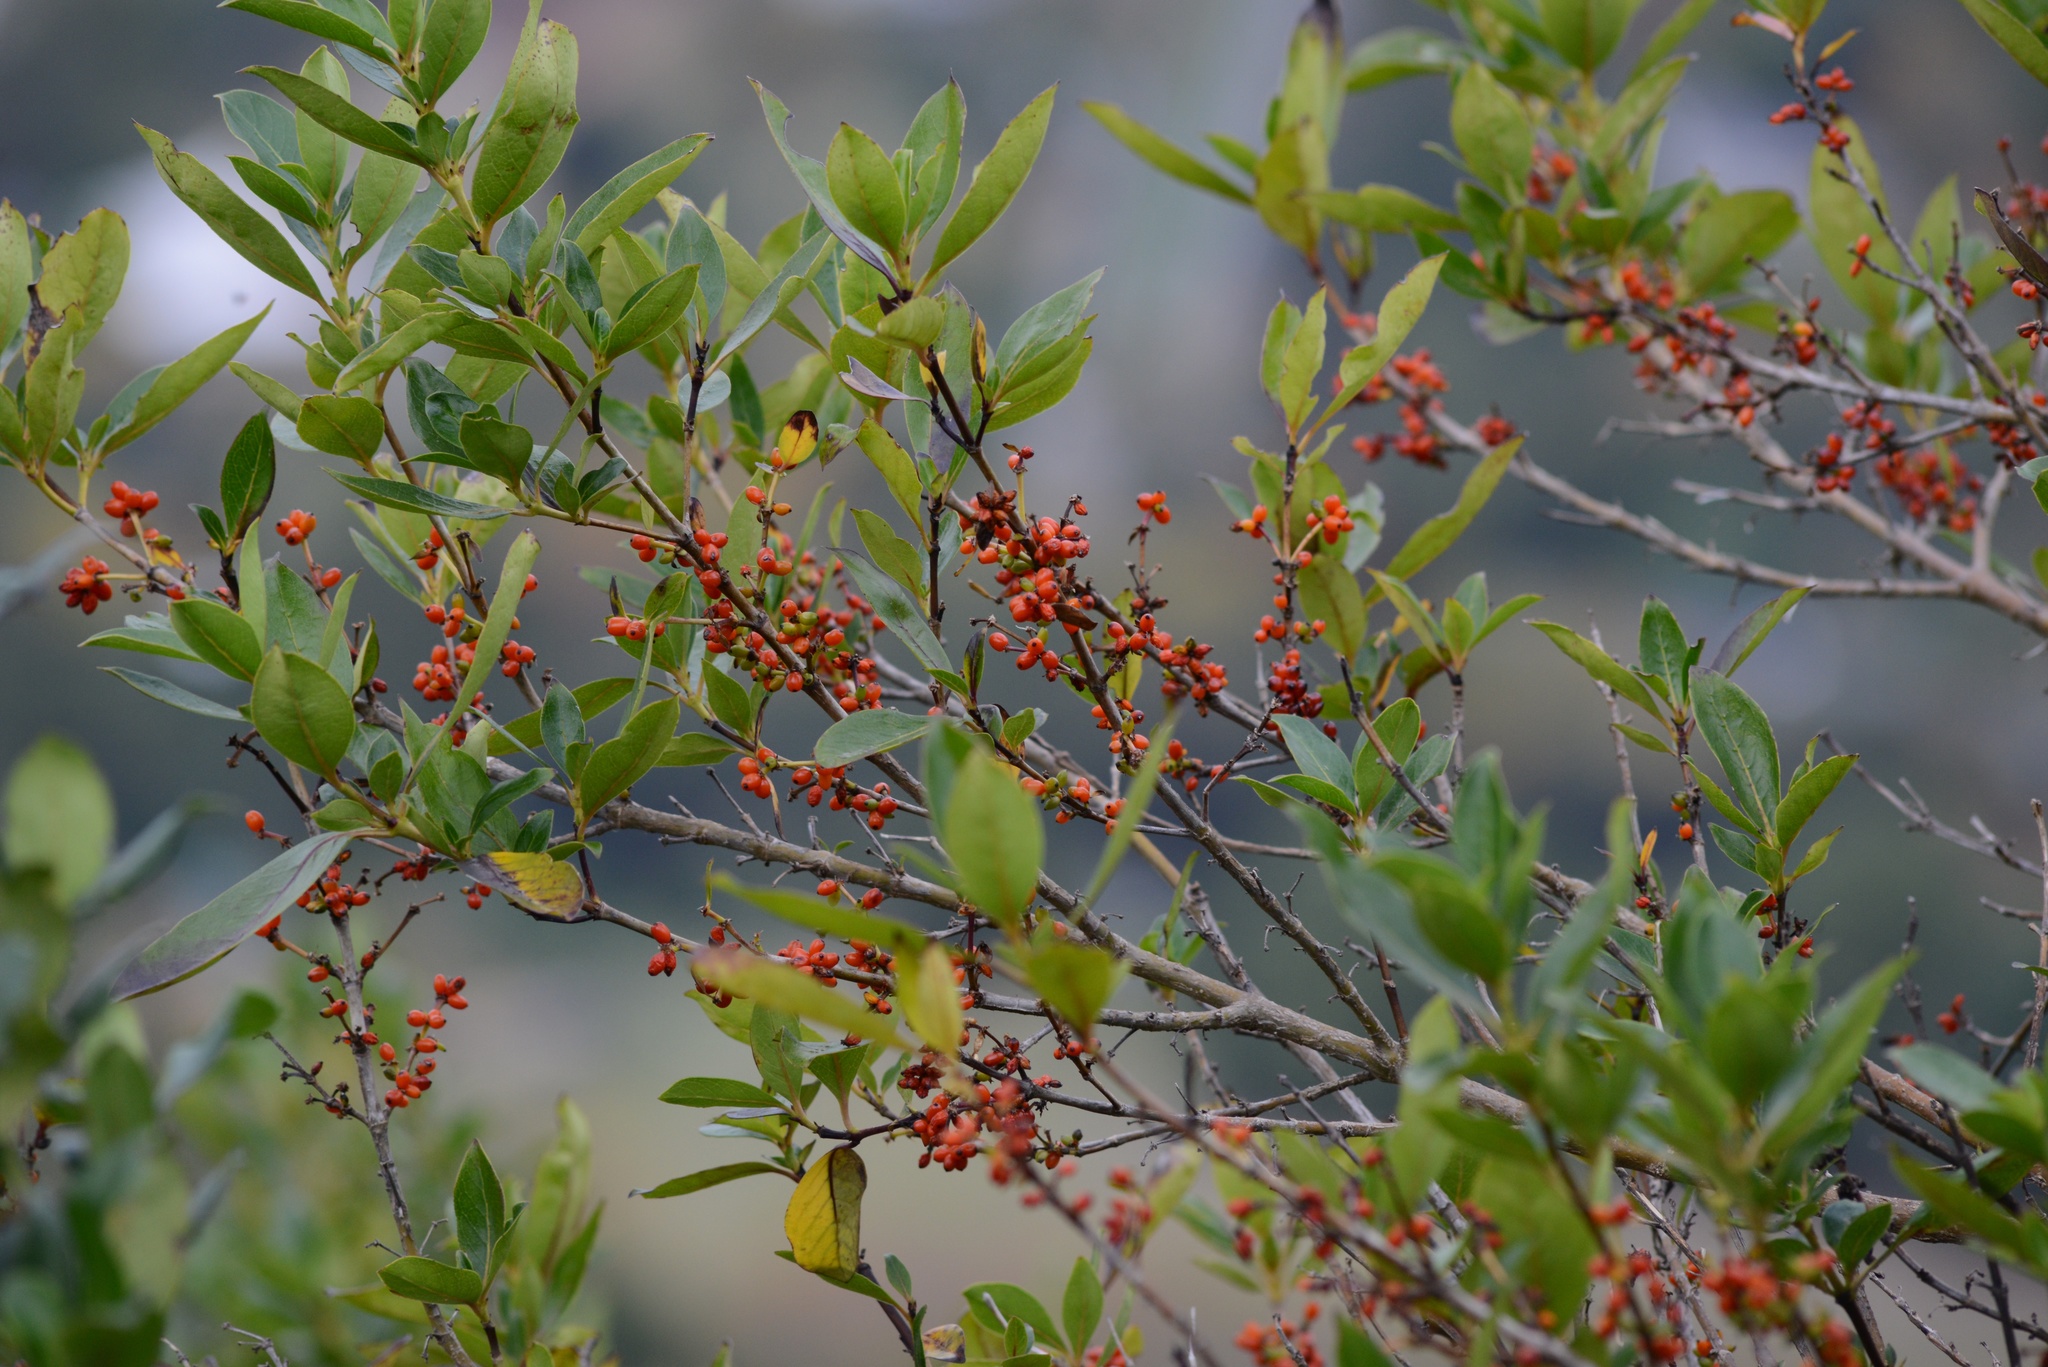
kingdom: Plantae
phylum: Tracheophyta
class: Magnoliopsida
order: Gentianales
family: Rubiaceae
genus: Coprosma
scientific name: Coprosma robusta
